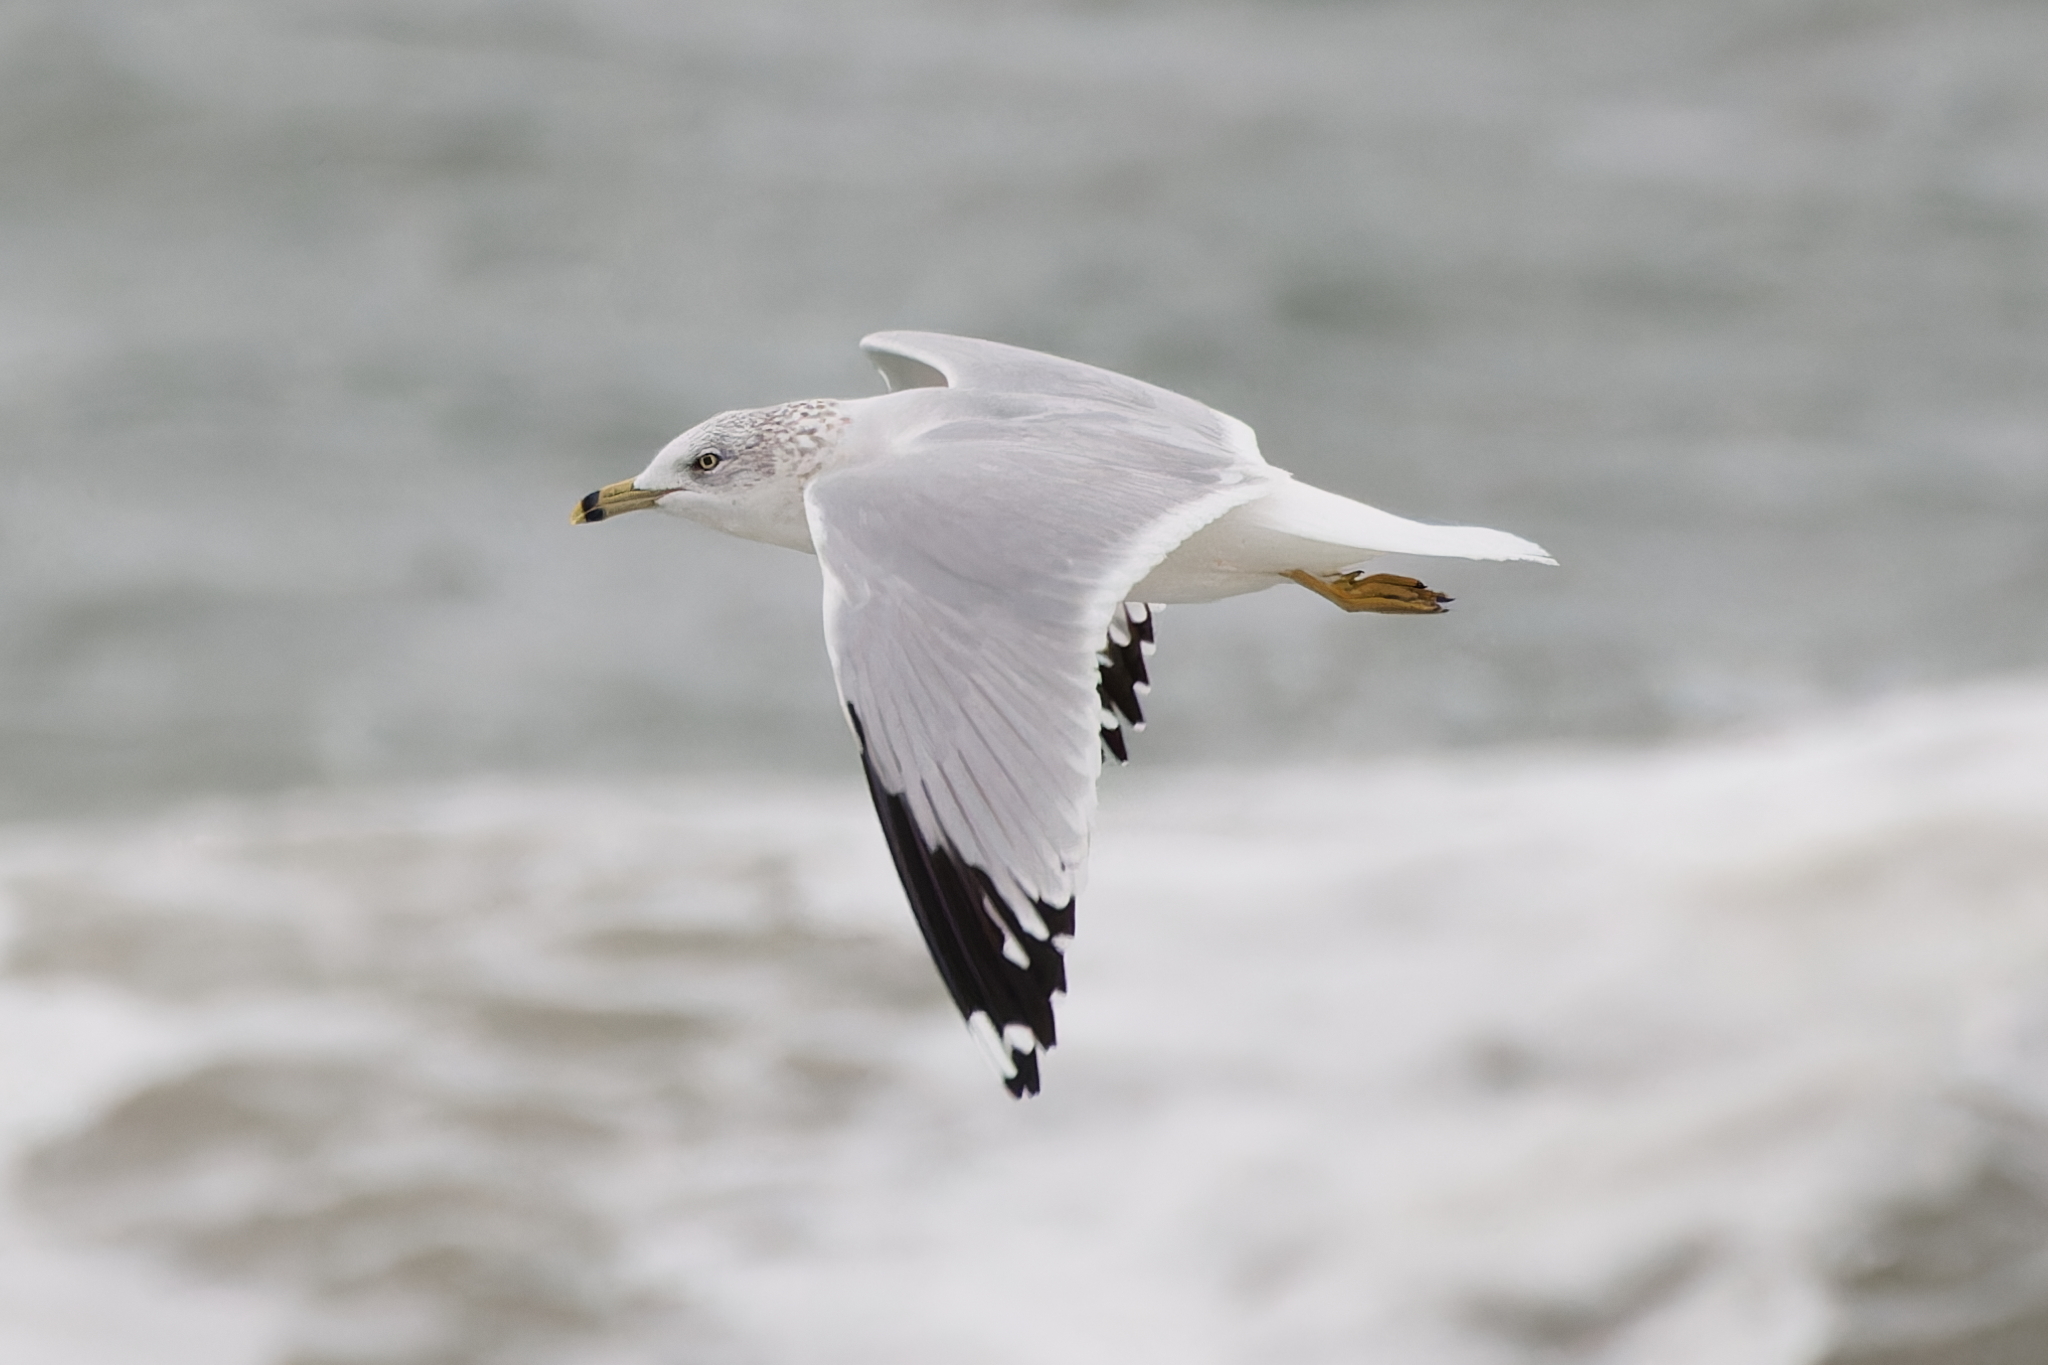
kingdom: Animalia
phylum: Chordata
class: Aves
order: Charadriiformes
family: Laridae
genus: Larus
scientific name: Larus delawarensis
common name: Ring-billed gull
